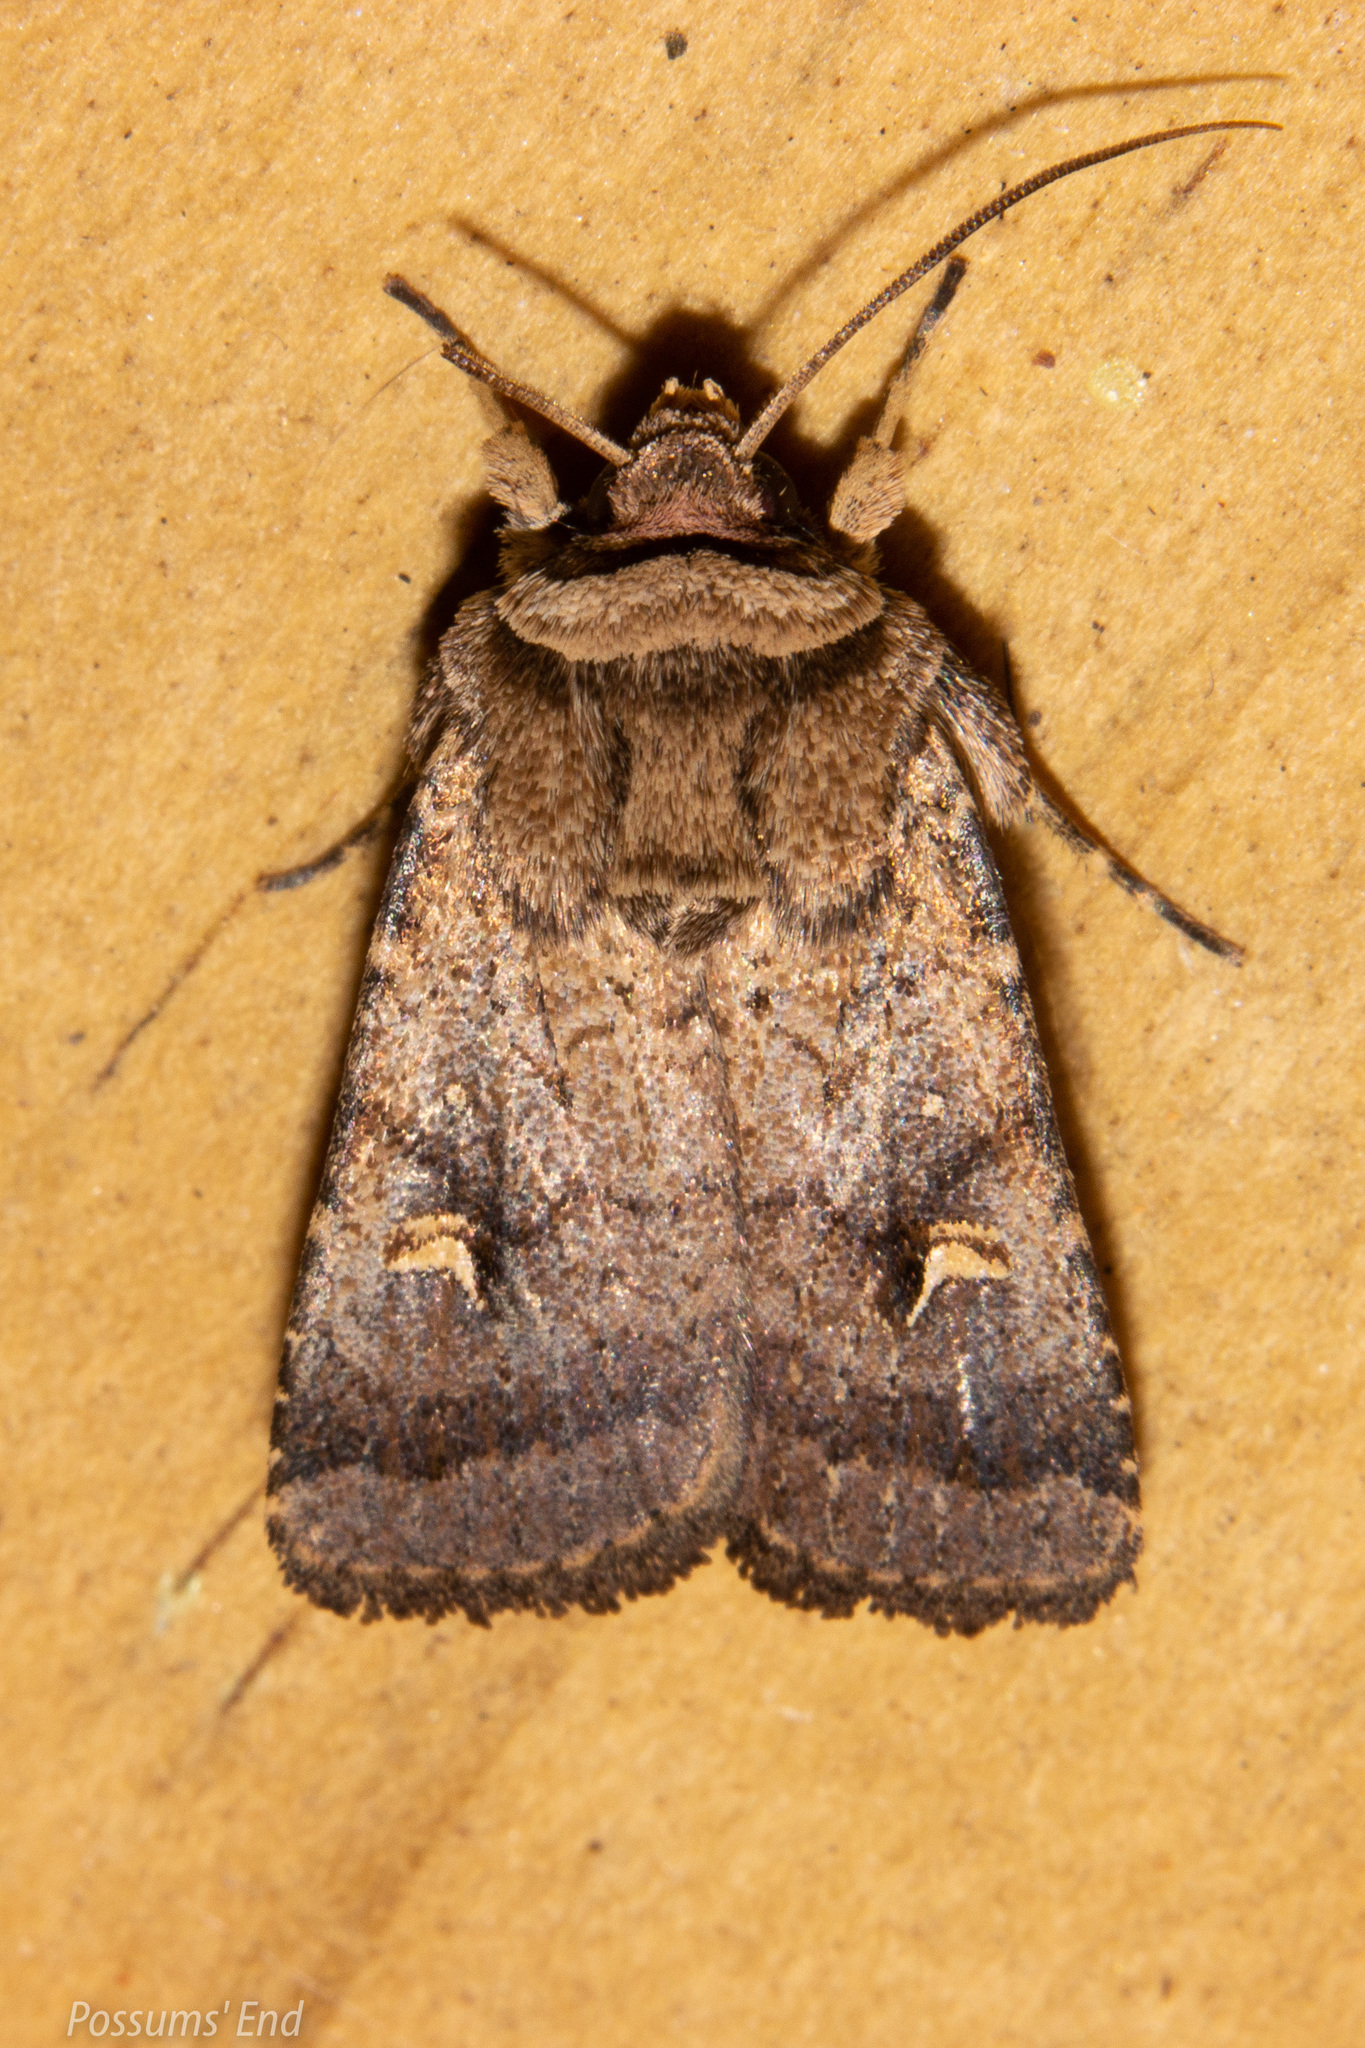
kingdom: Animalia
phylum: Arthropoda
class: Insecta
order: Lepidoptera
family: Noctuidae
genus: Proteuxoa
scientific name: Proteuxoa tetronycha
